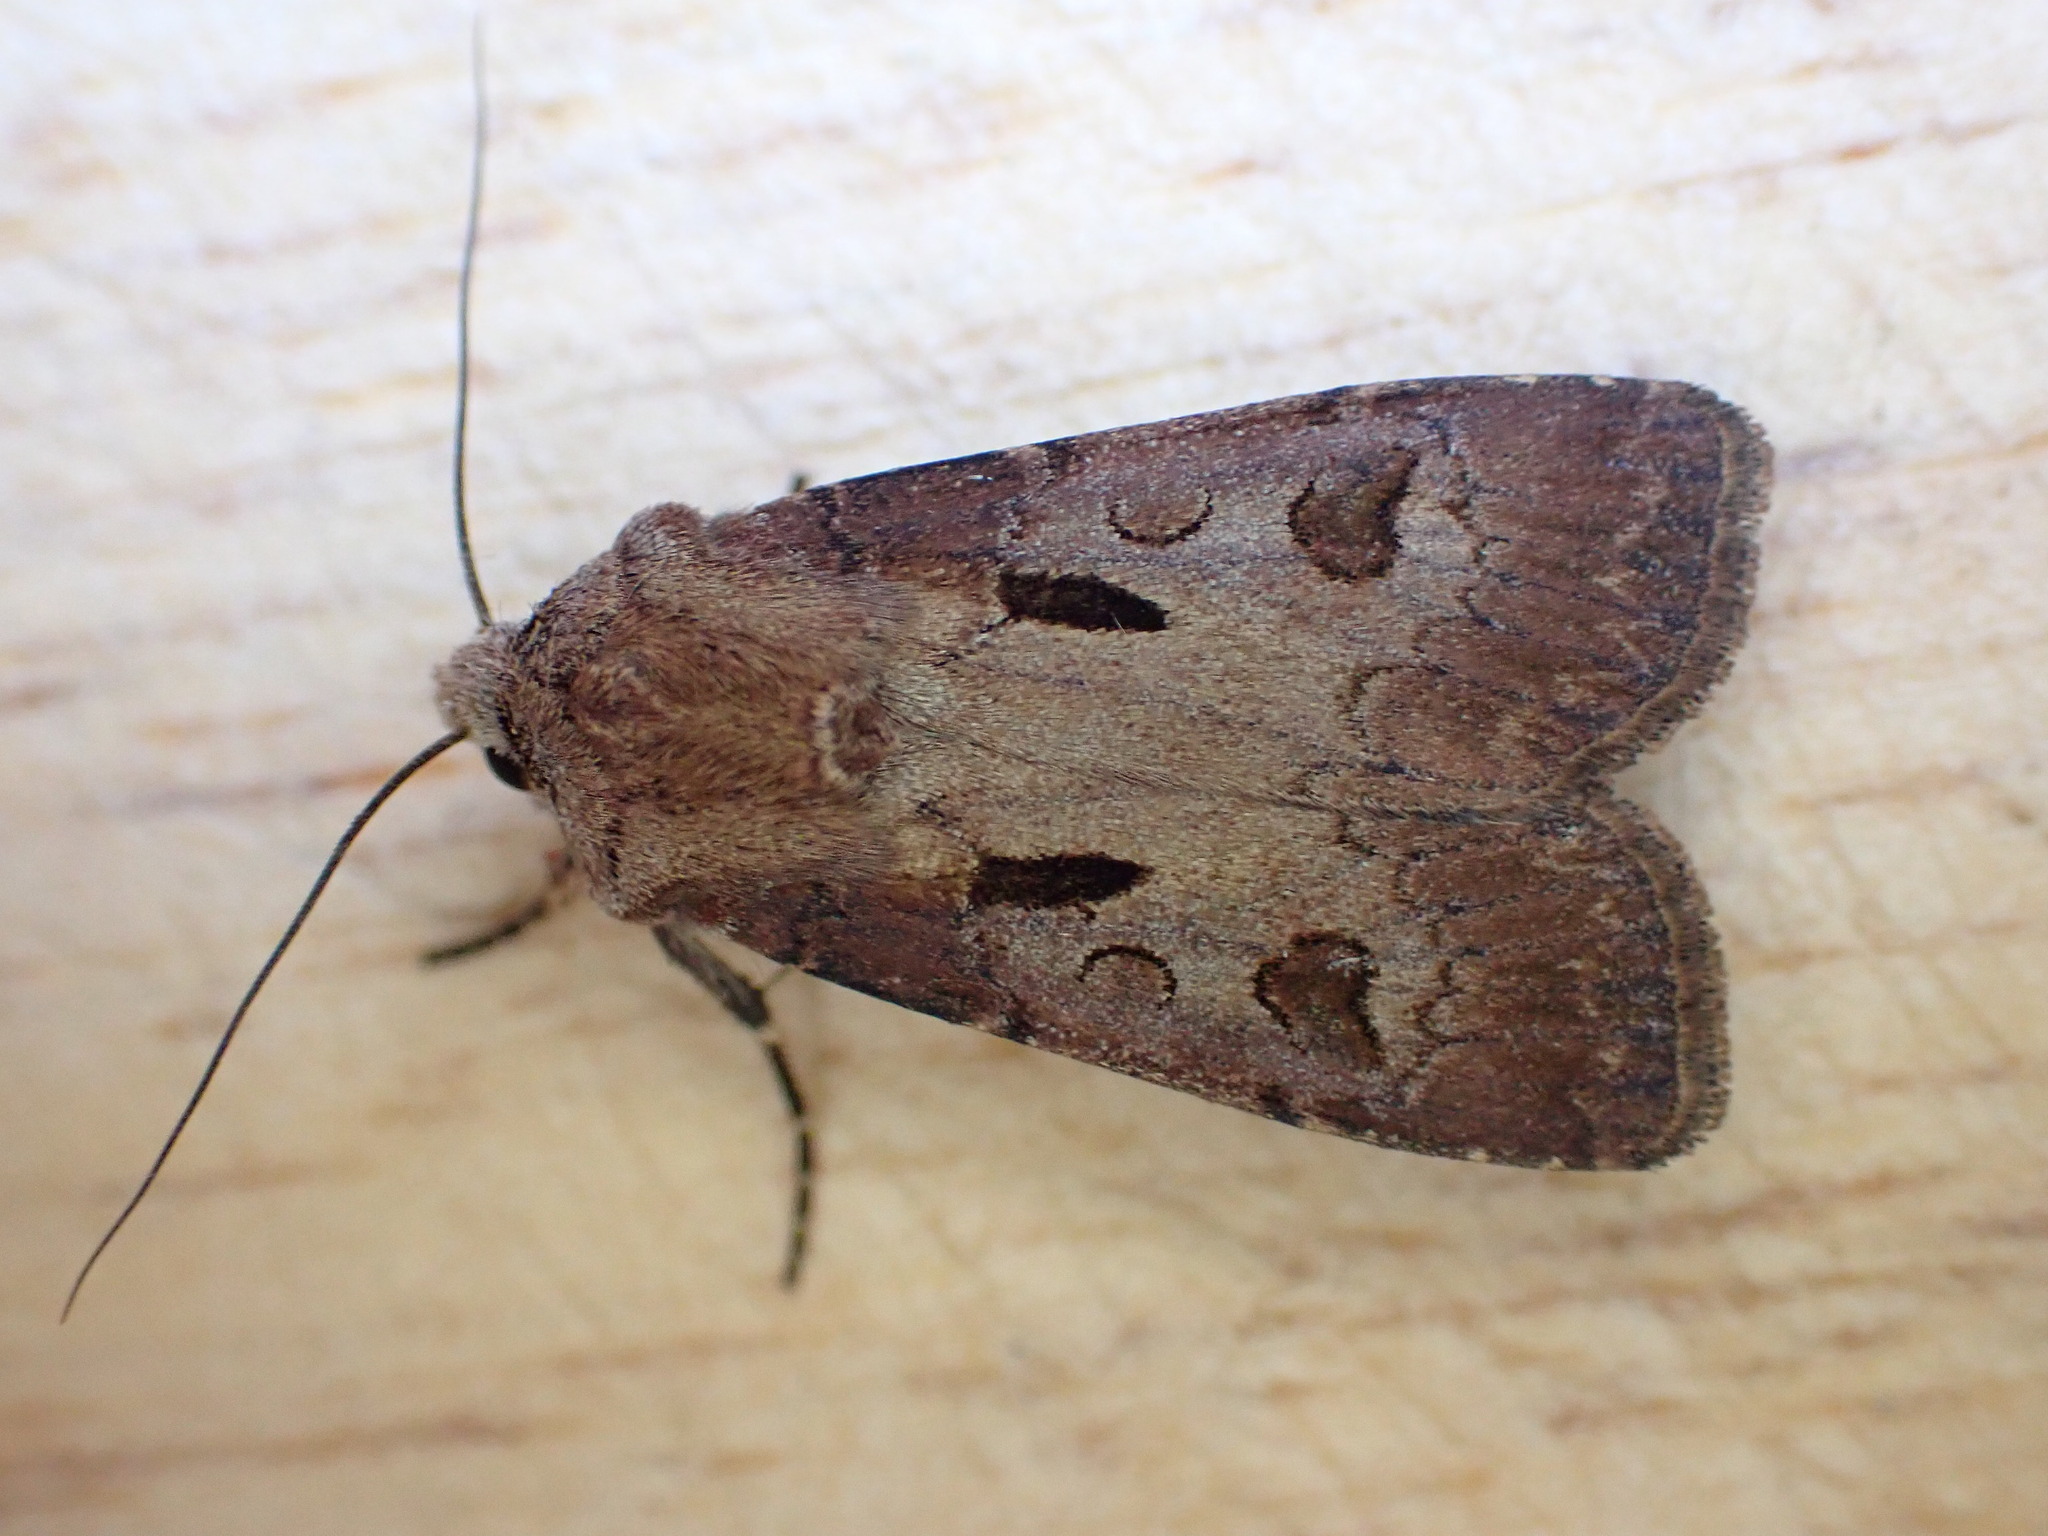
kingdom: Animalia
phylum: Arthropoda
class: Insecta
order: Lepidoptera
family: Noctuidae
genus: Agrotis
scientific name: Agrotis exclamationis
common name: Heart and dart
